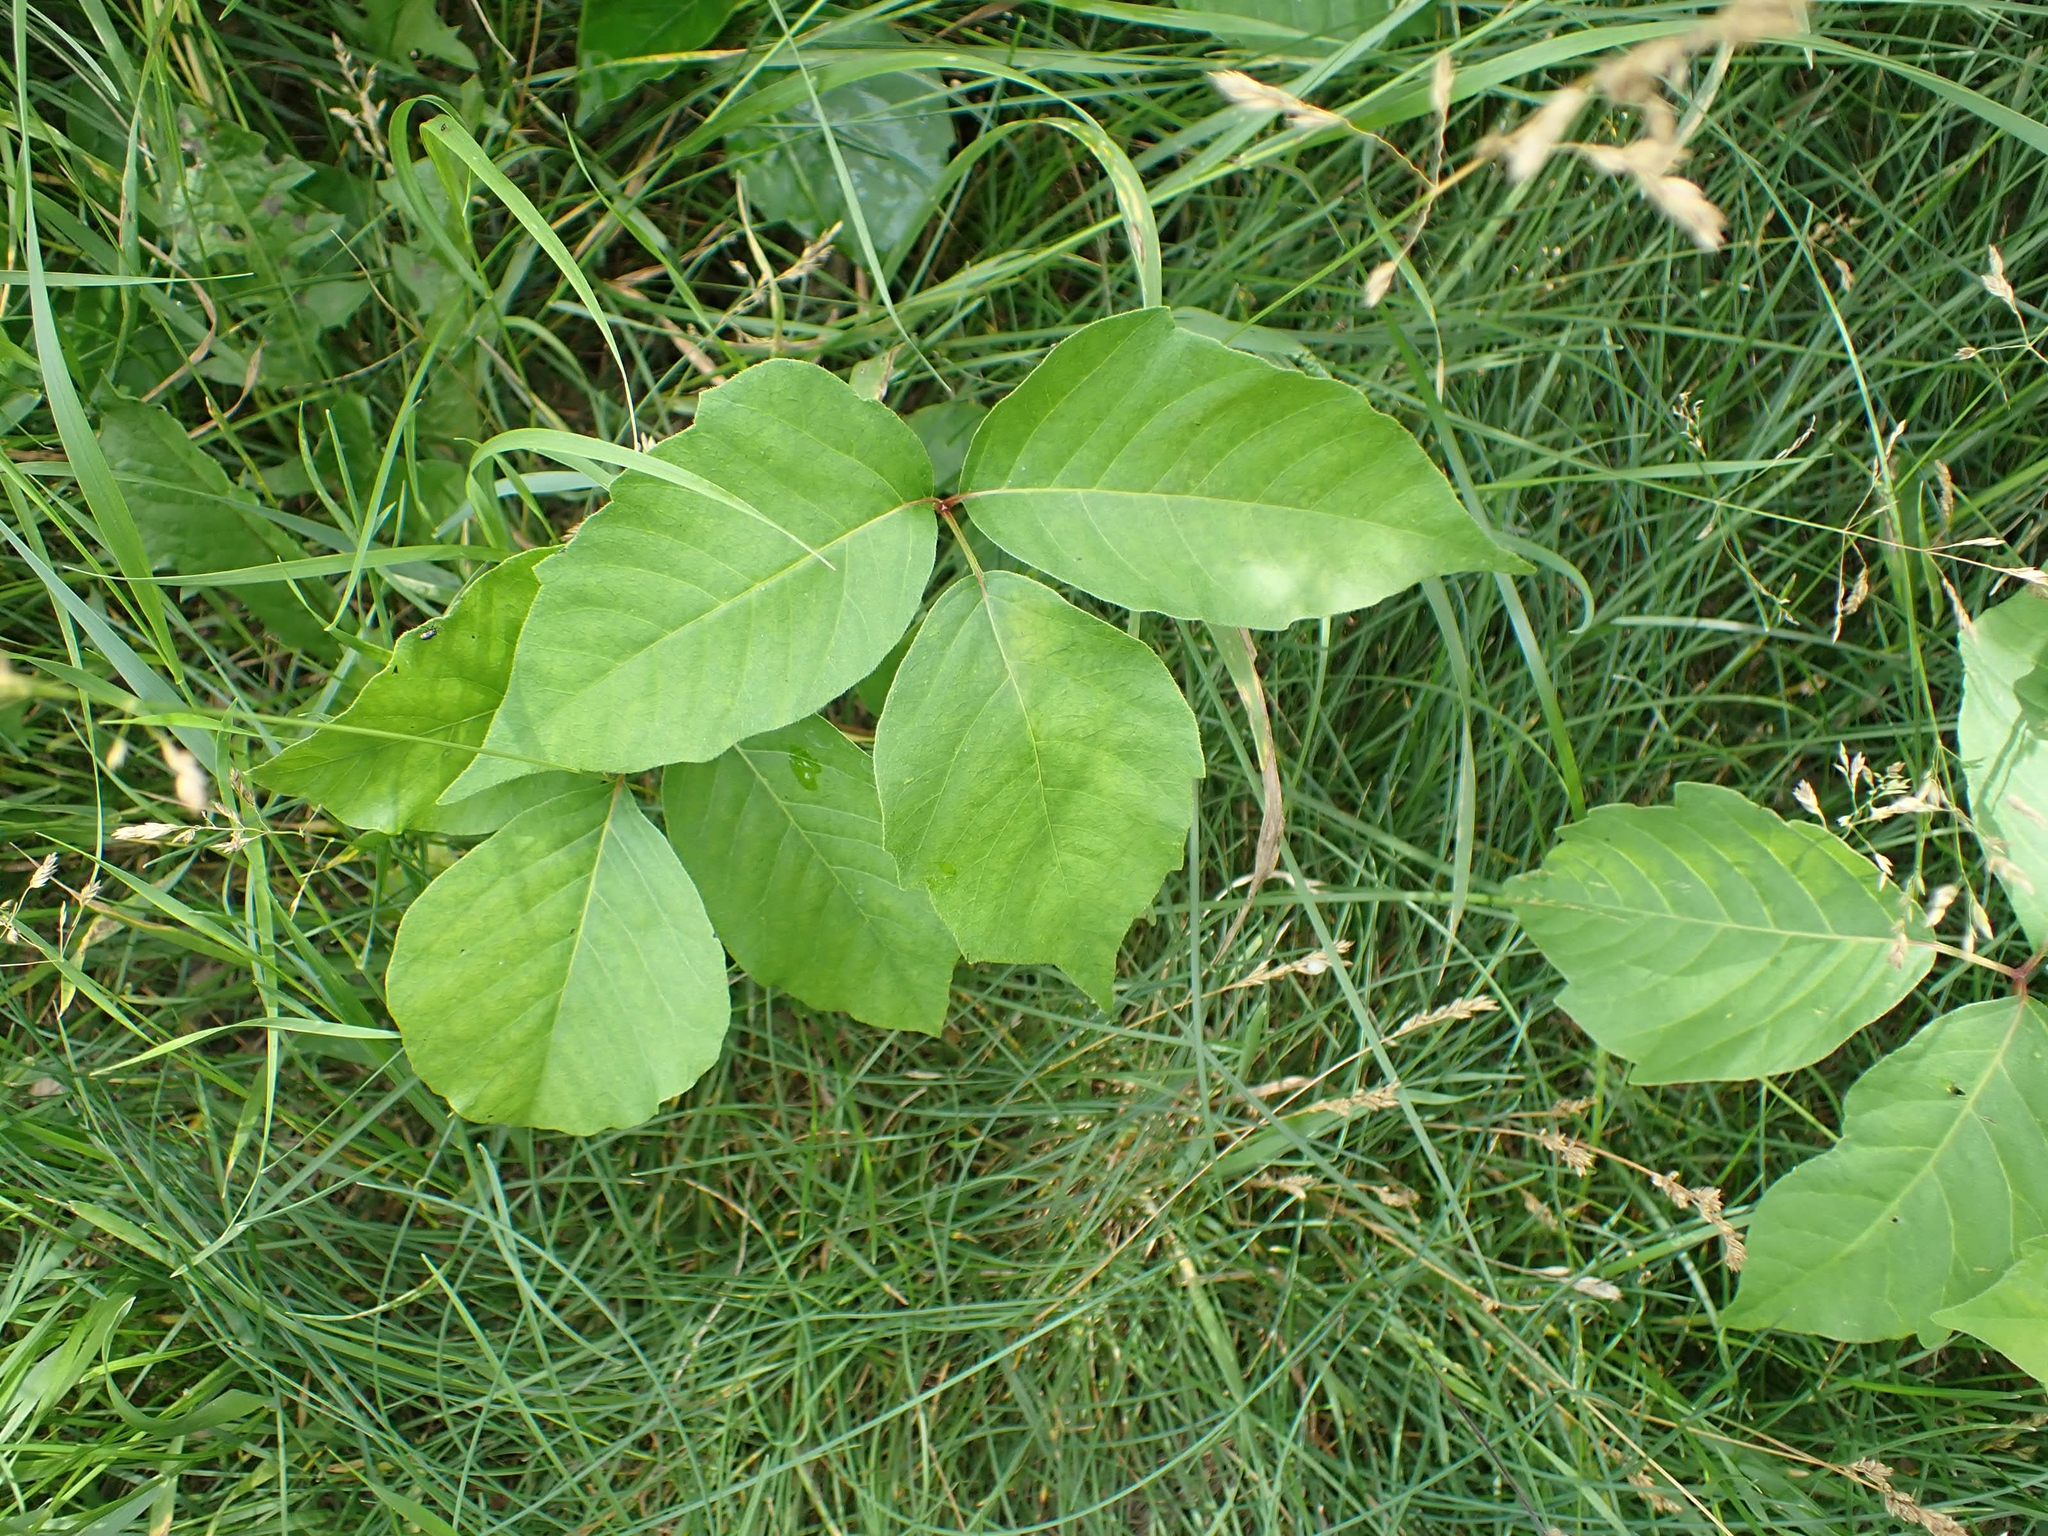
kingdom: Plantae
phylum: Tracheophyta
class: Magnoliopsida
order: Sapindales
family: Anacardiaceae
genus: Toxicodendron
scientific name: Toxicodendron rydbergii
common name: Rydberg's poison-ivy
